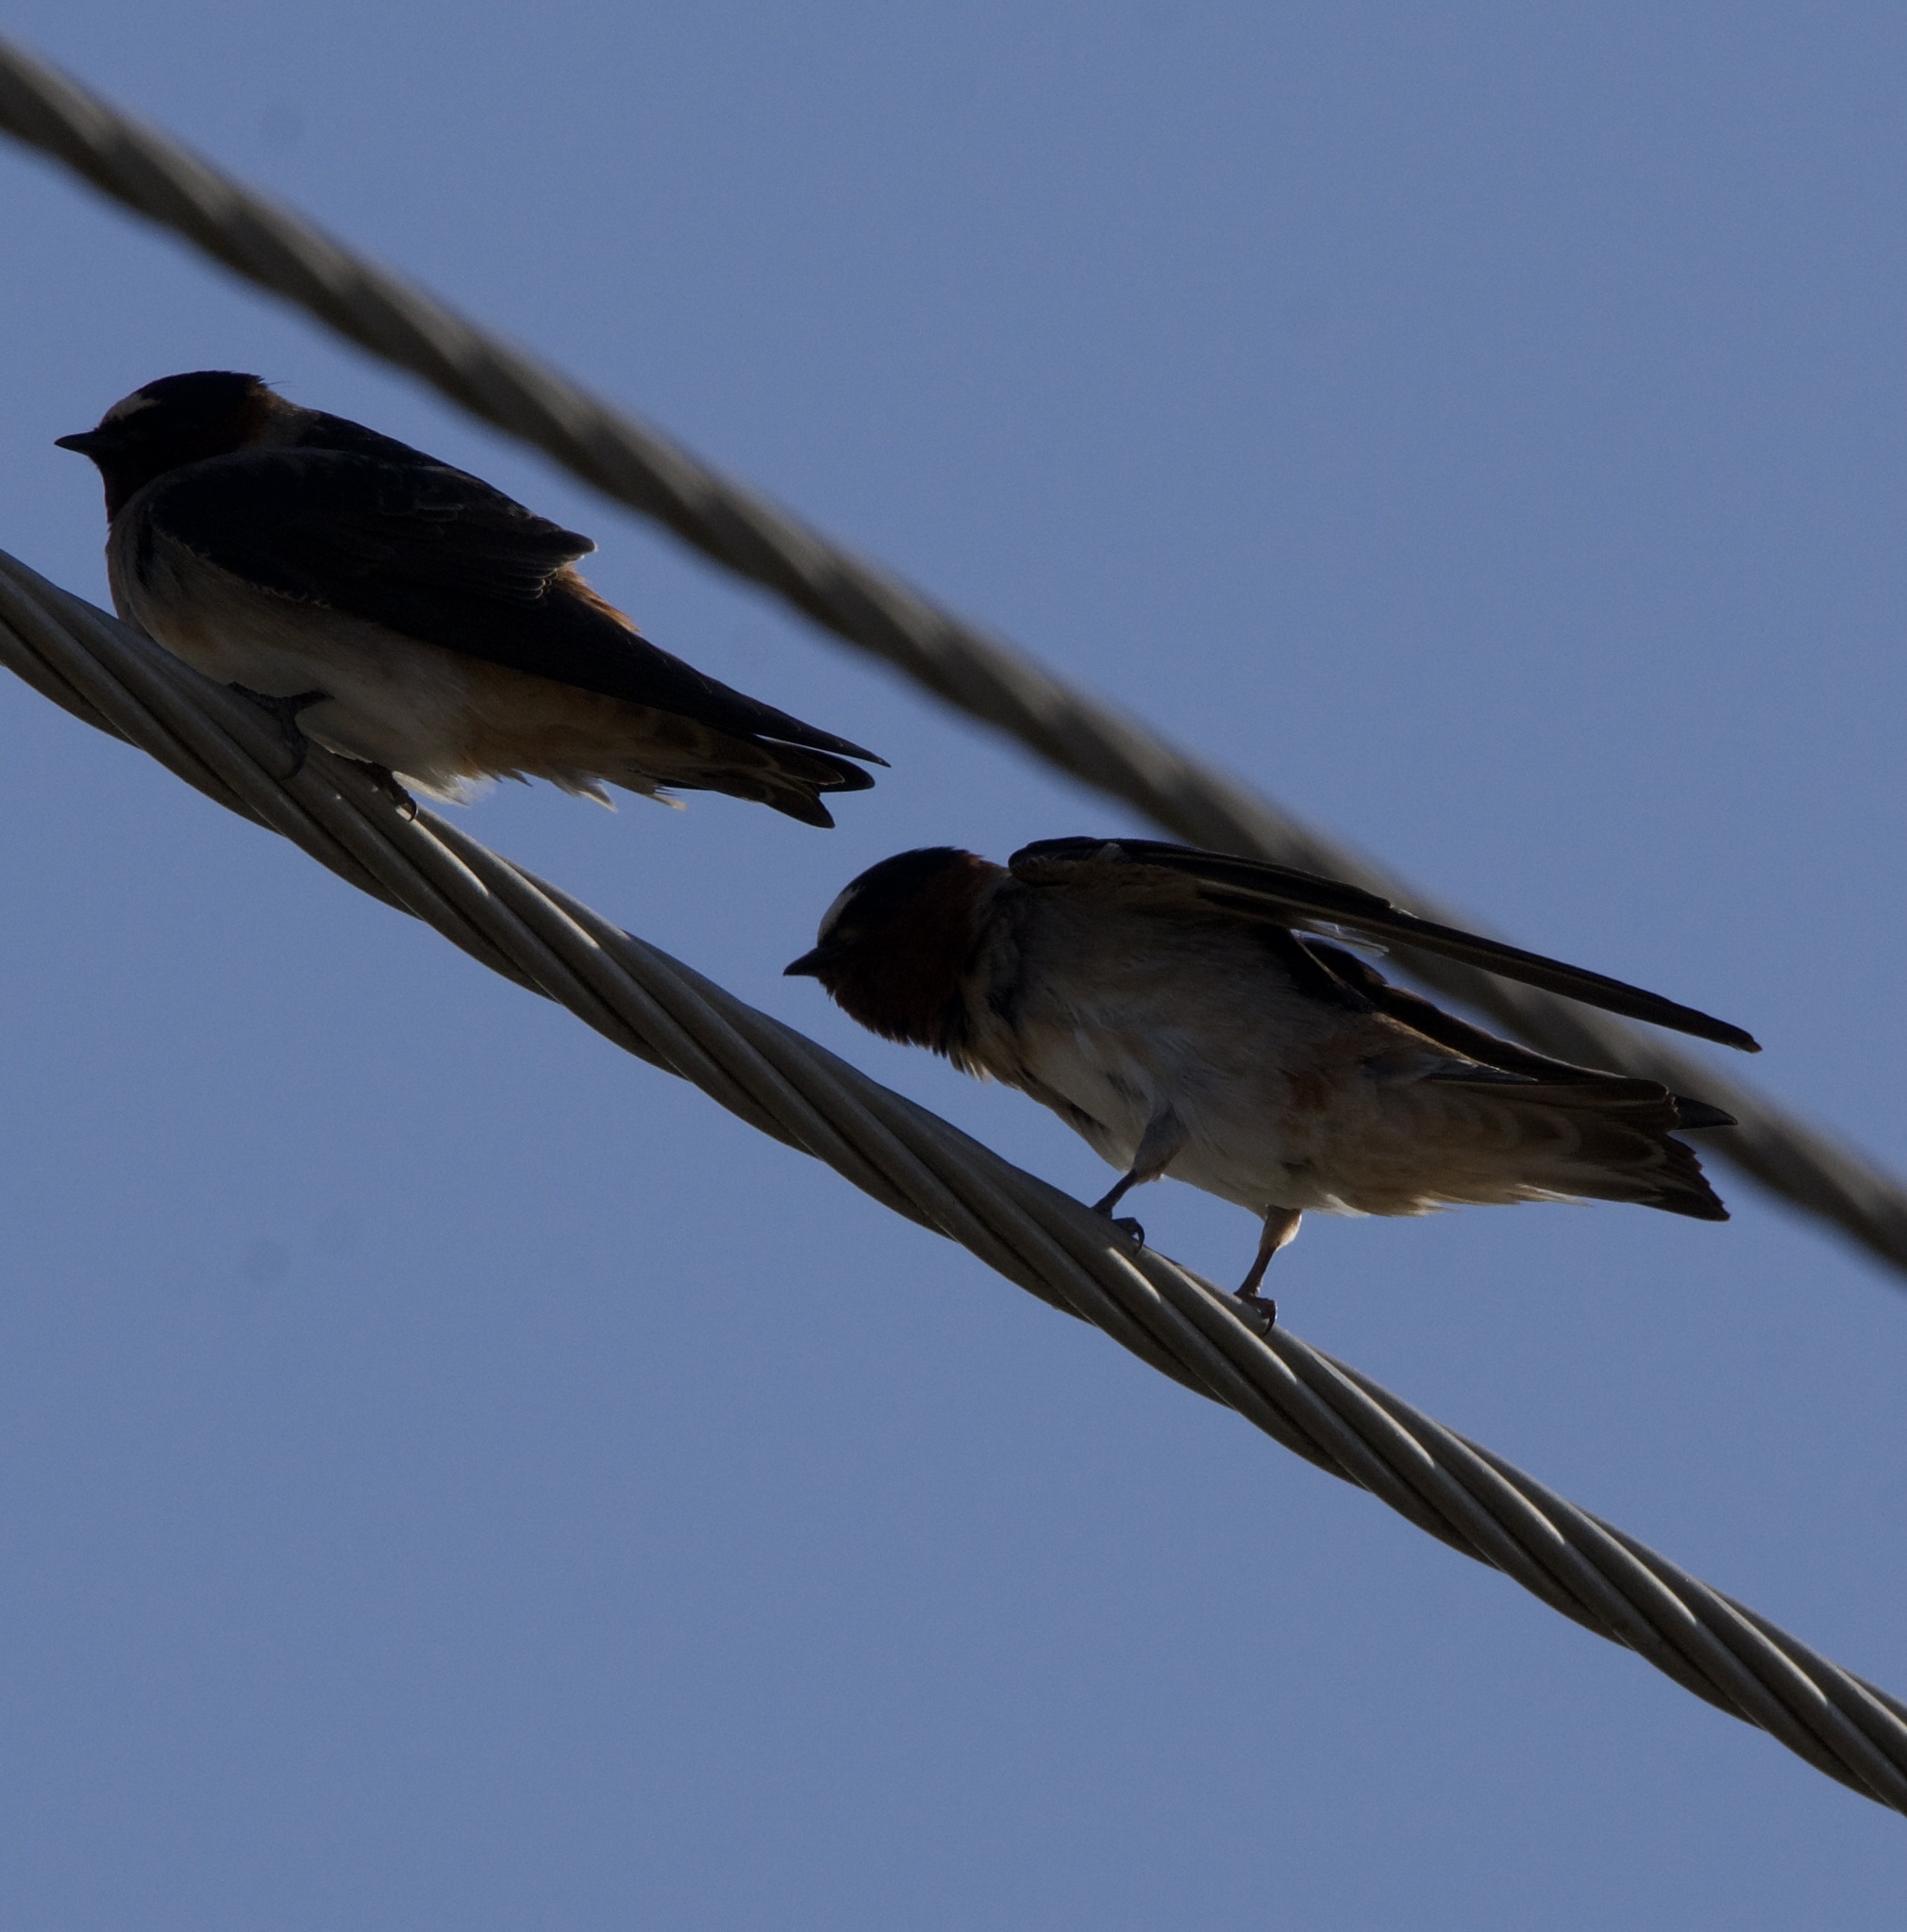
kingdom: Animalia
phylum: Chordata
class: Aves
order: Passeriformes
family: Hirundinidae
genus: Petrochelidon
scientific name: Petrochelidon pyrrhonota
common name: American cliff swallow
